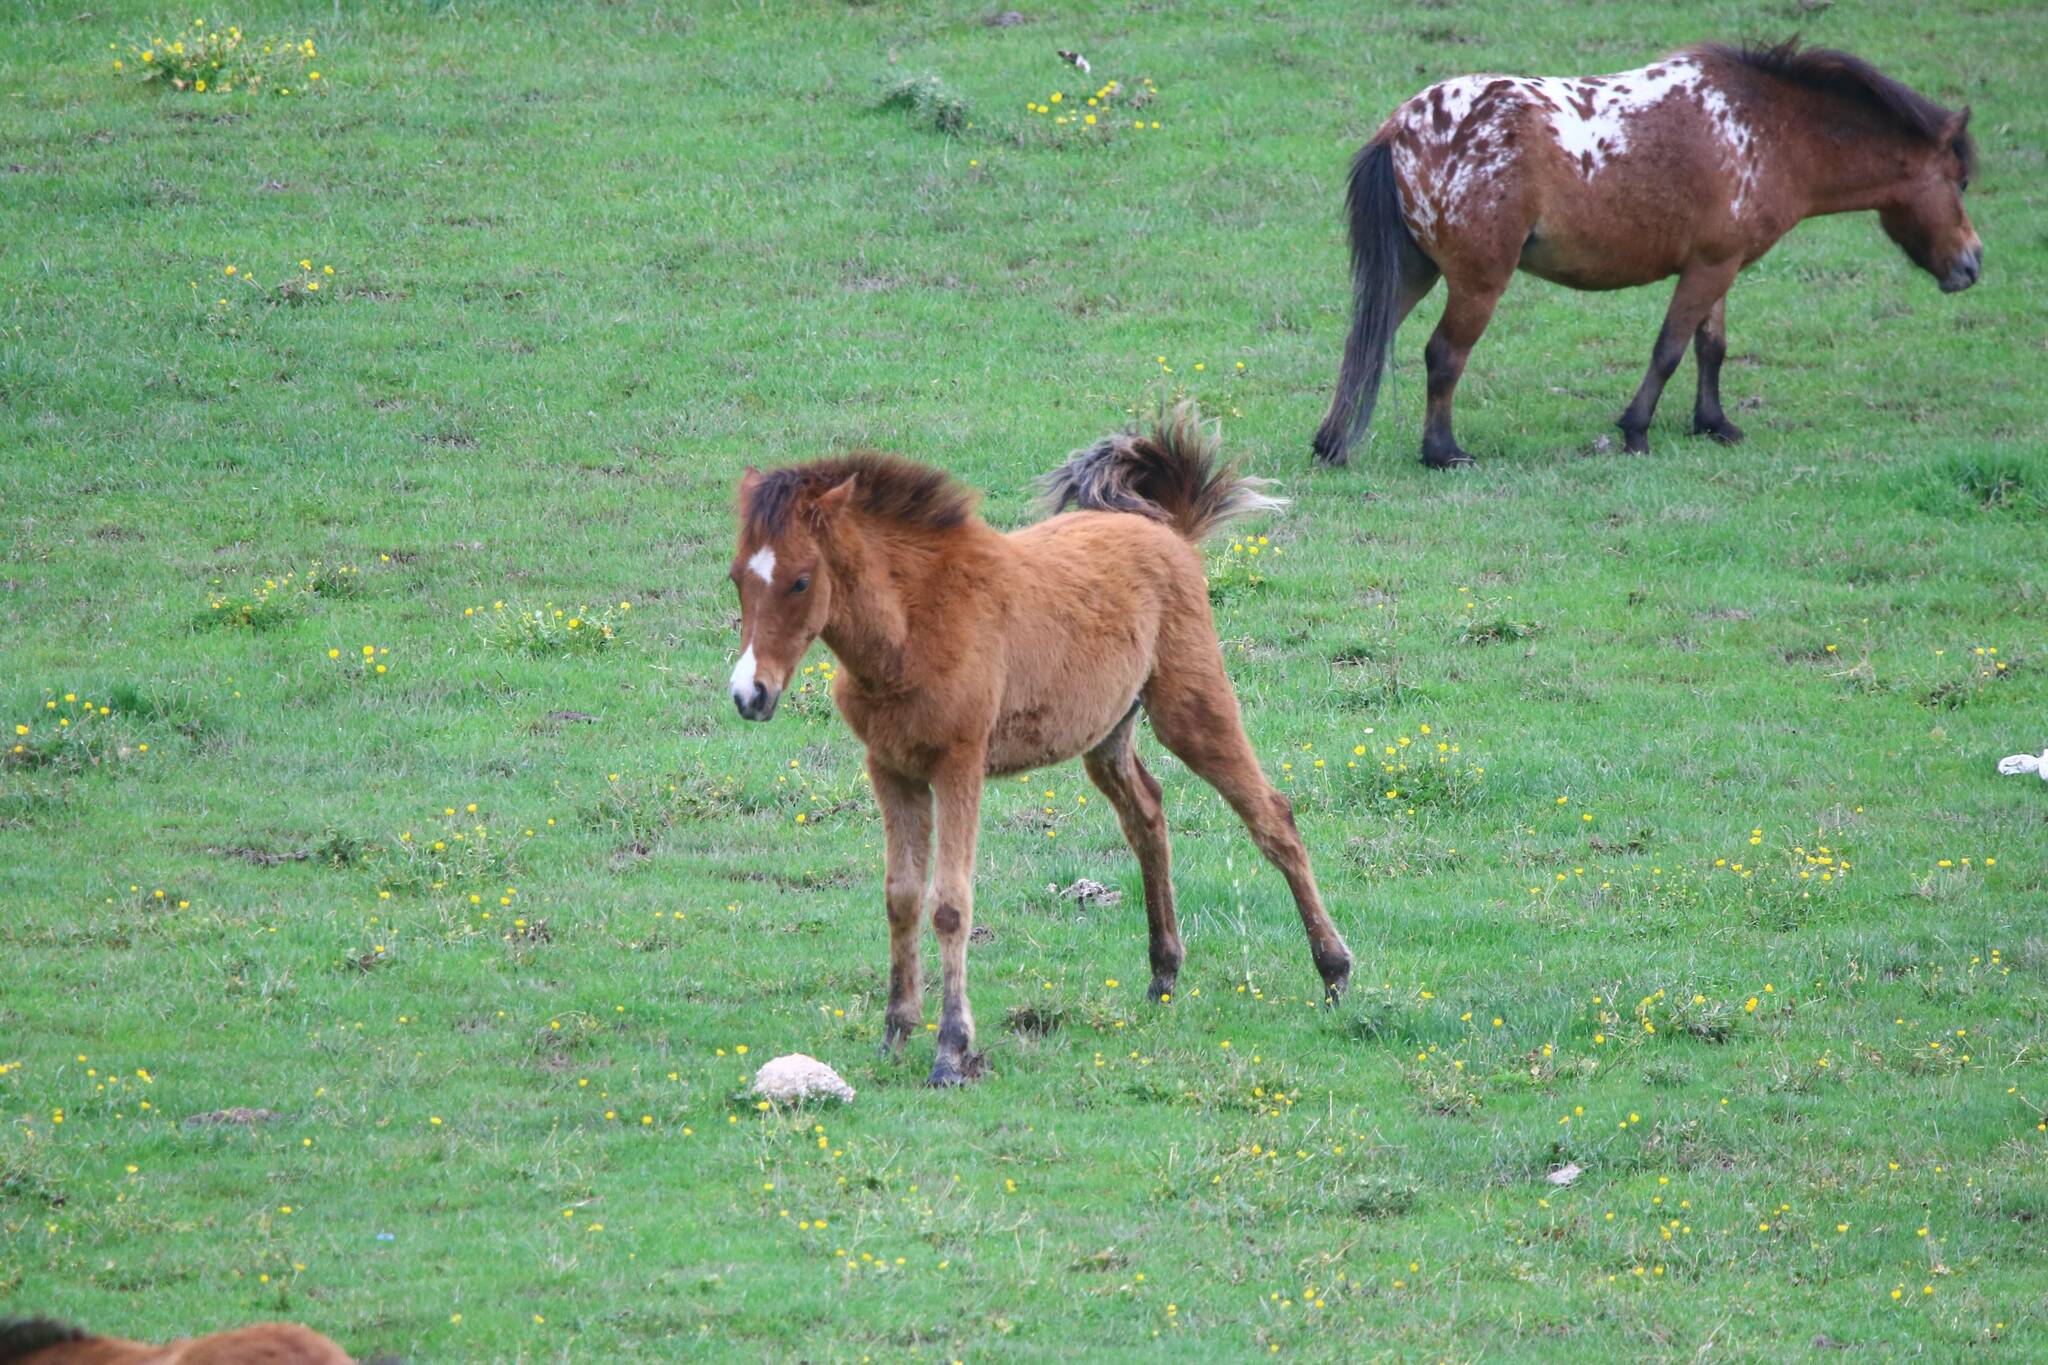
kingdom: Animalia
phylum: Chordata
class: Mammalia
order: Perissodactyla
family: Equidae
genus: Equus
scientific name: Equus caballus
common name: Horse
